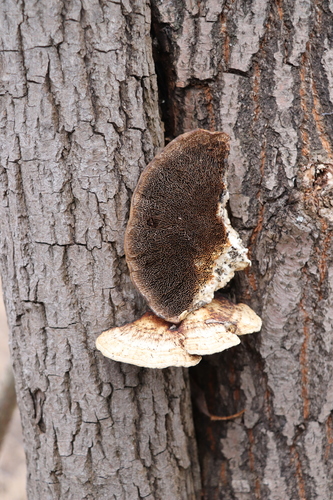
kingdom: Fungi
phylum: Basidiomycota
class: Agaricomycetes
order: Polyporales
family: Polyporaceae
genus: Daedaleopsis
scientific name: Daedaleopsis confragosa
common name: Blushing bracket
